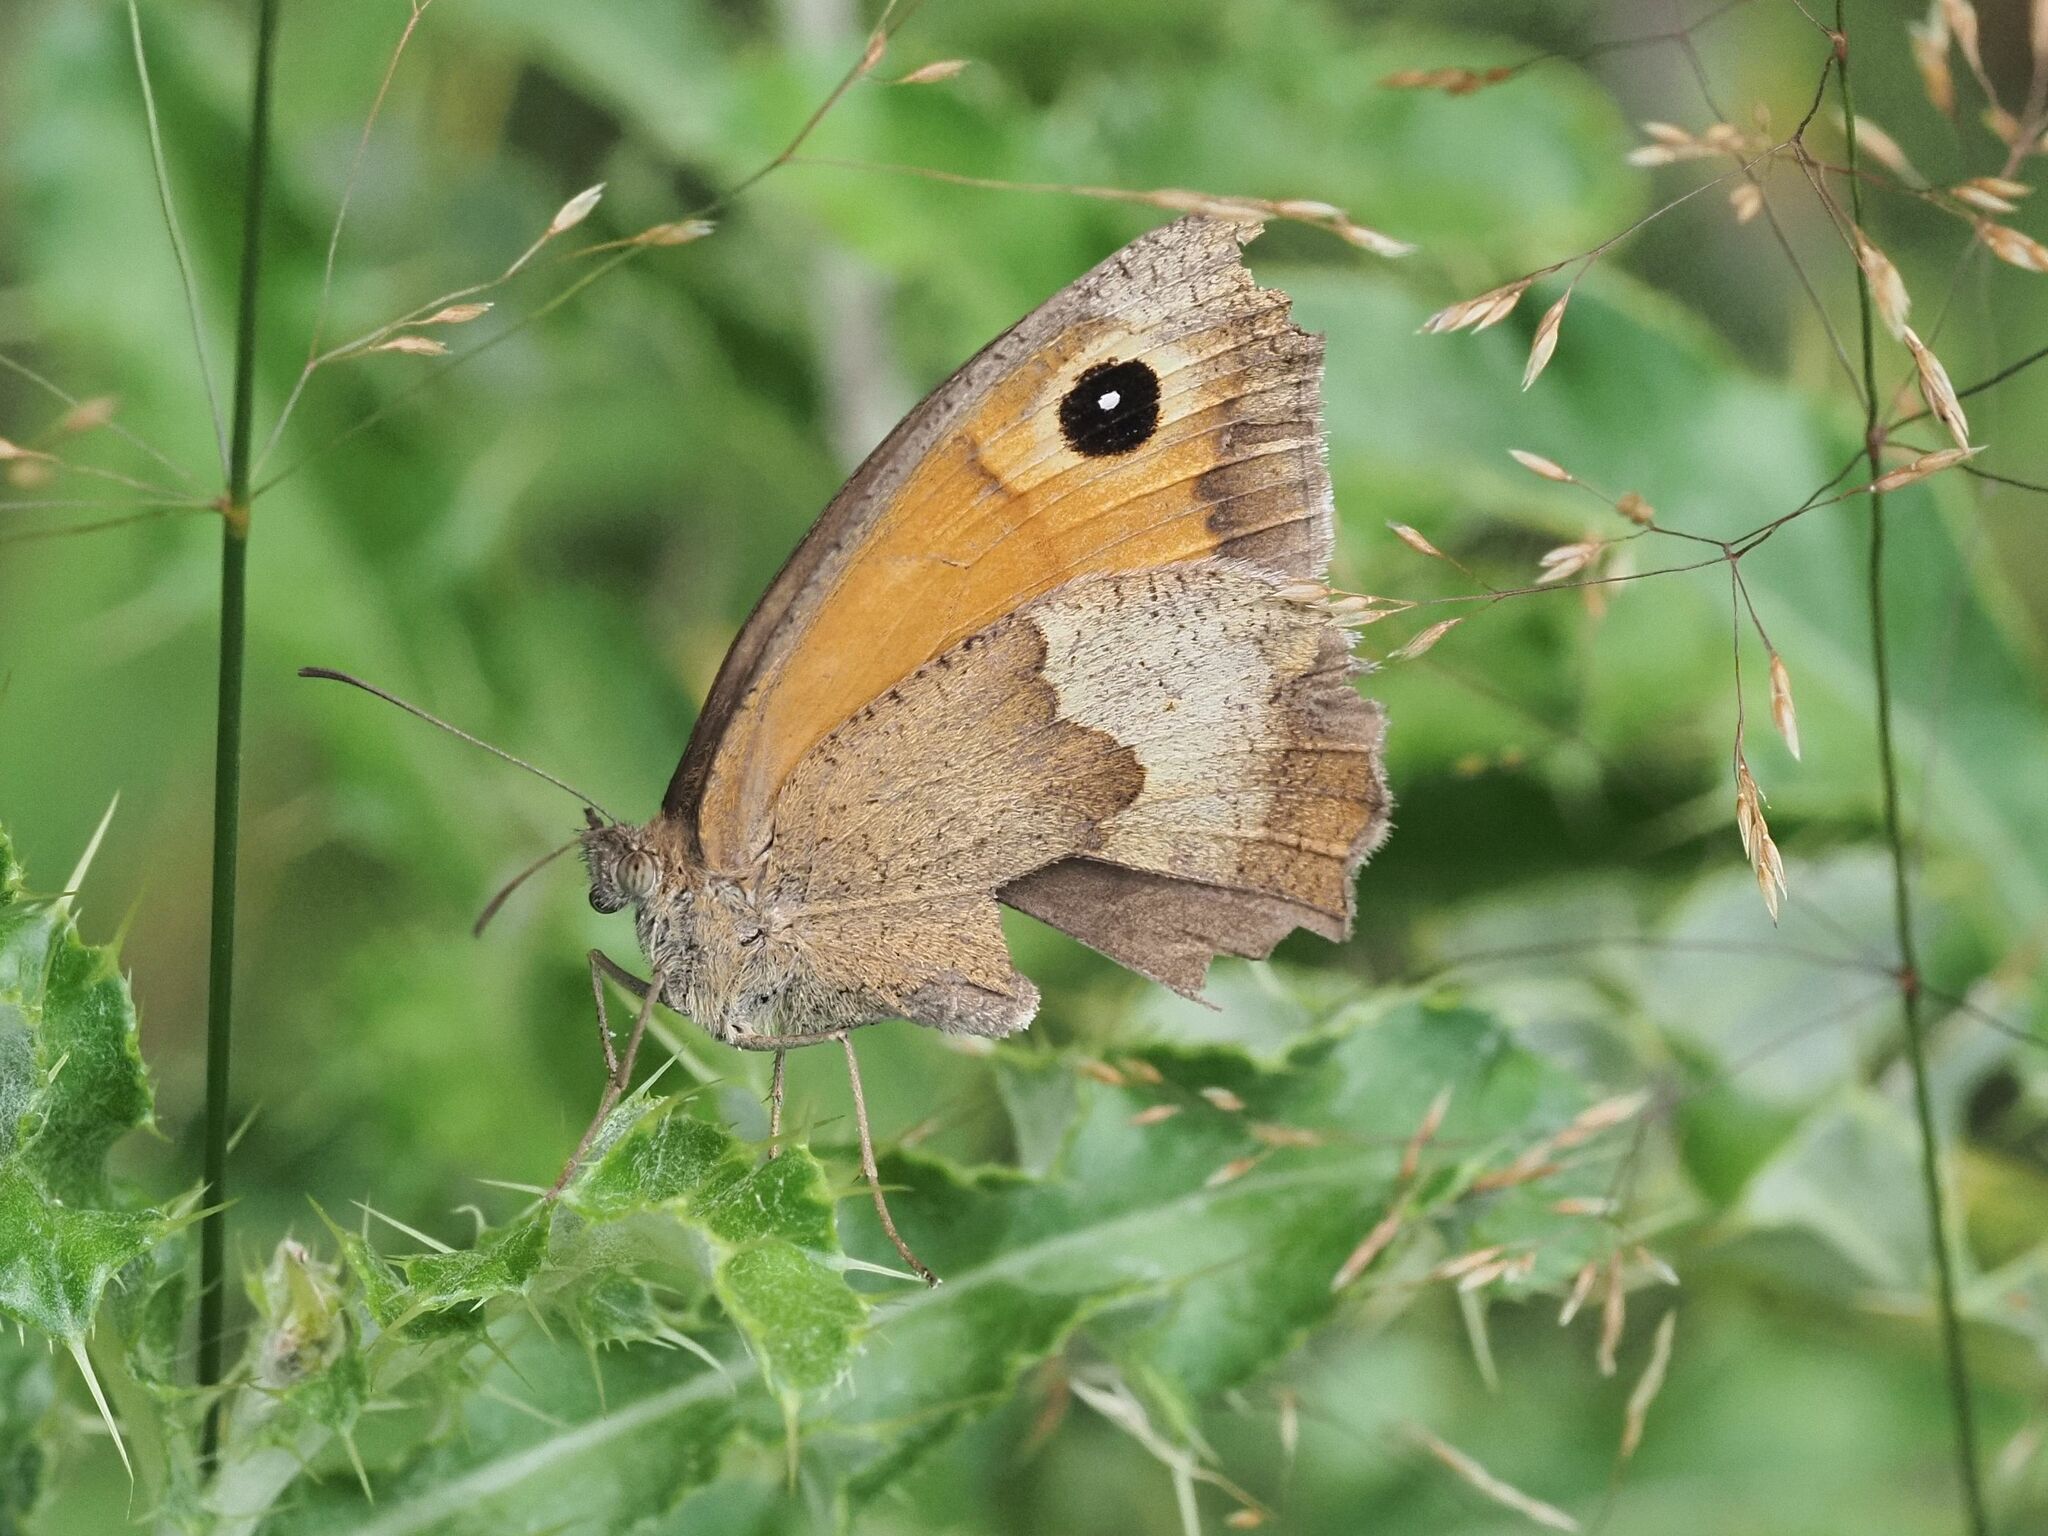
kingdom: Animalia
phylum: Arthropoda
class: Insecta
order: Lepidoptera
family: Nymphalidae
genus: Maniola
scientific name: Maniola jurtina
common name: Meadow brown
